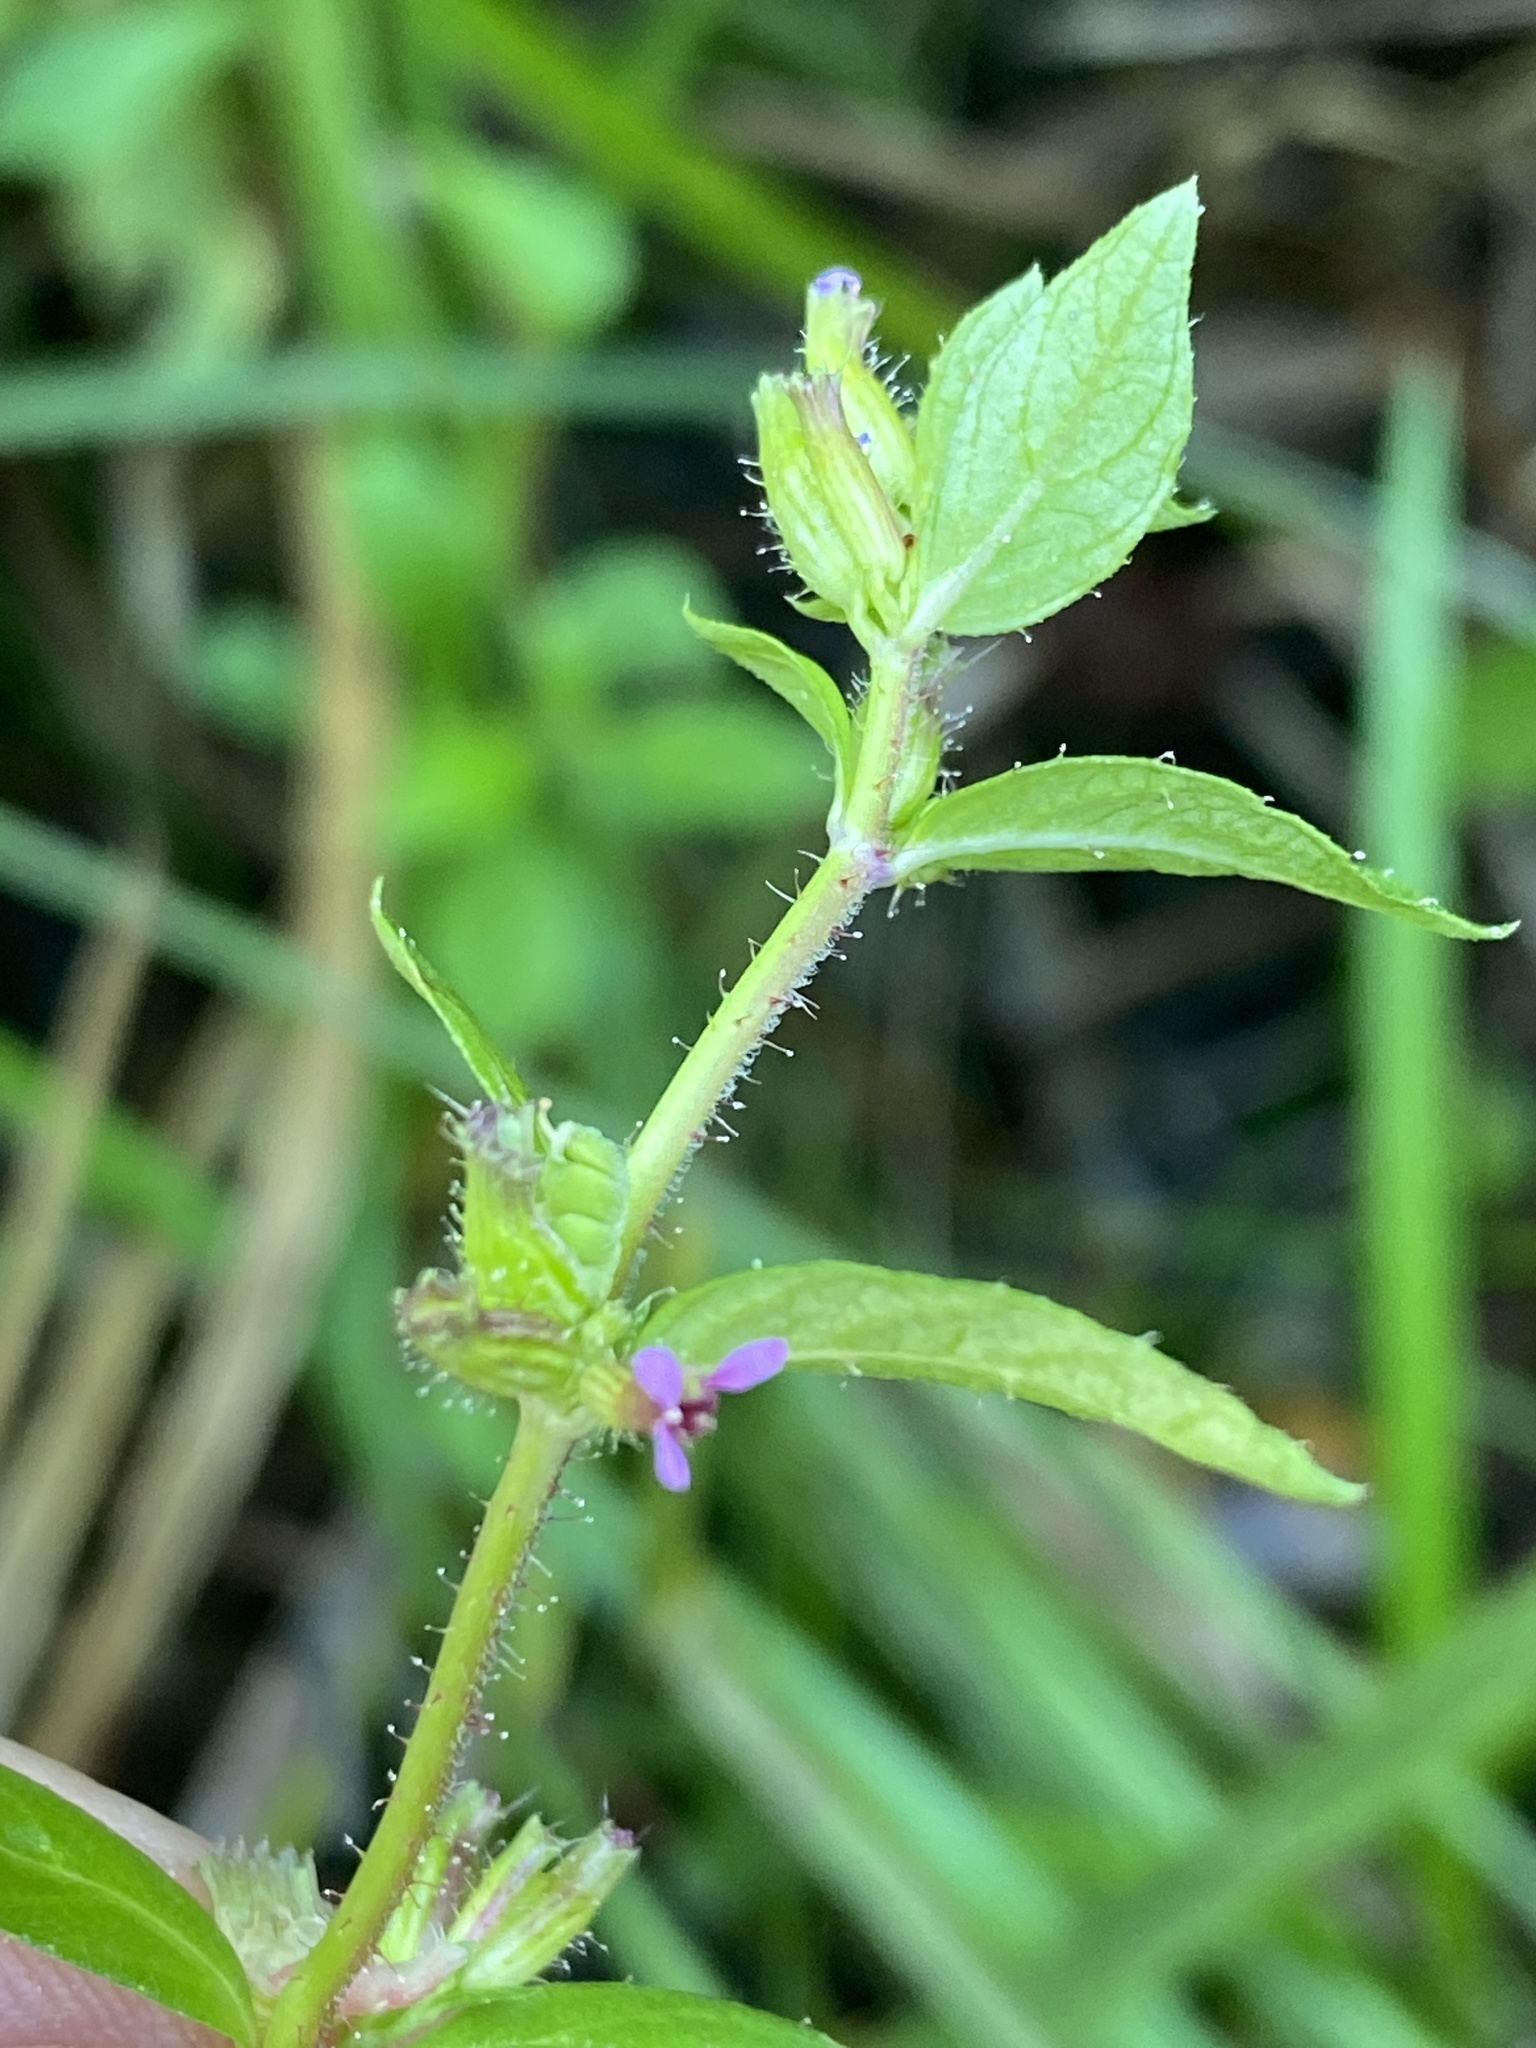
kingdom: Plantae
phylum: Tracheophyta
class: Magnoliopsida
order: Myrtales
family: Lythraceae
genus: Cuphea
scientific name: Cuphea viscosissima
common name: Clammy cuphea
